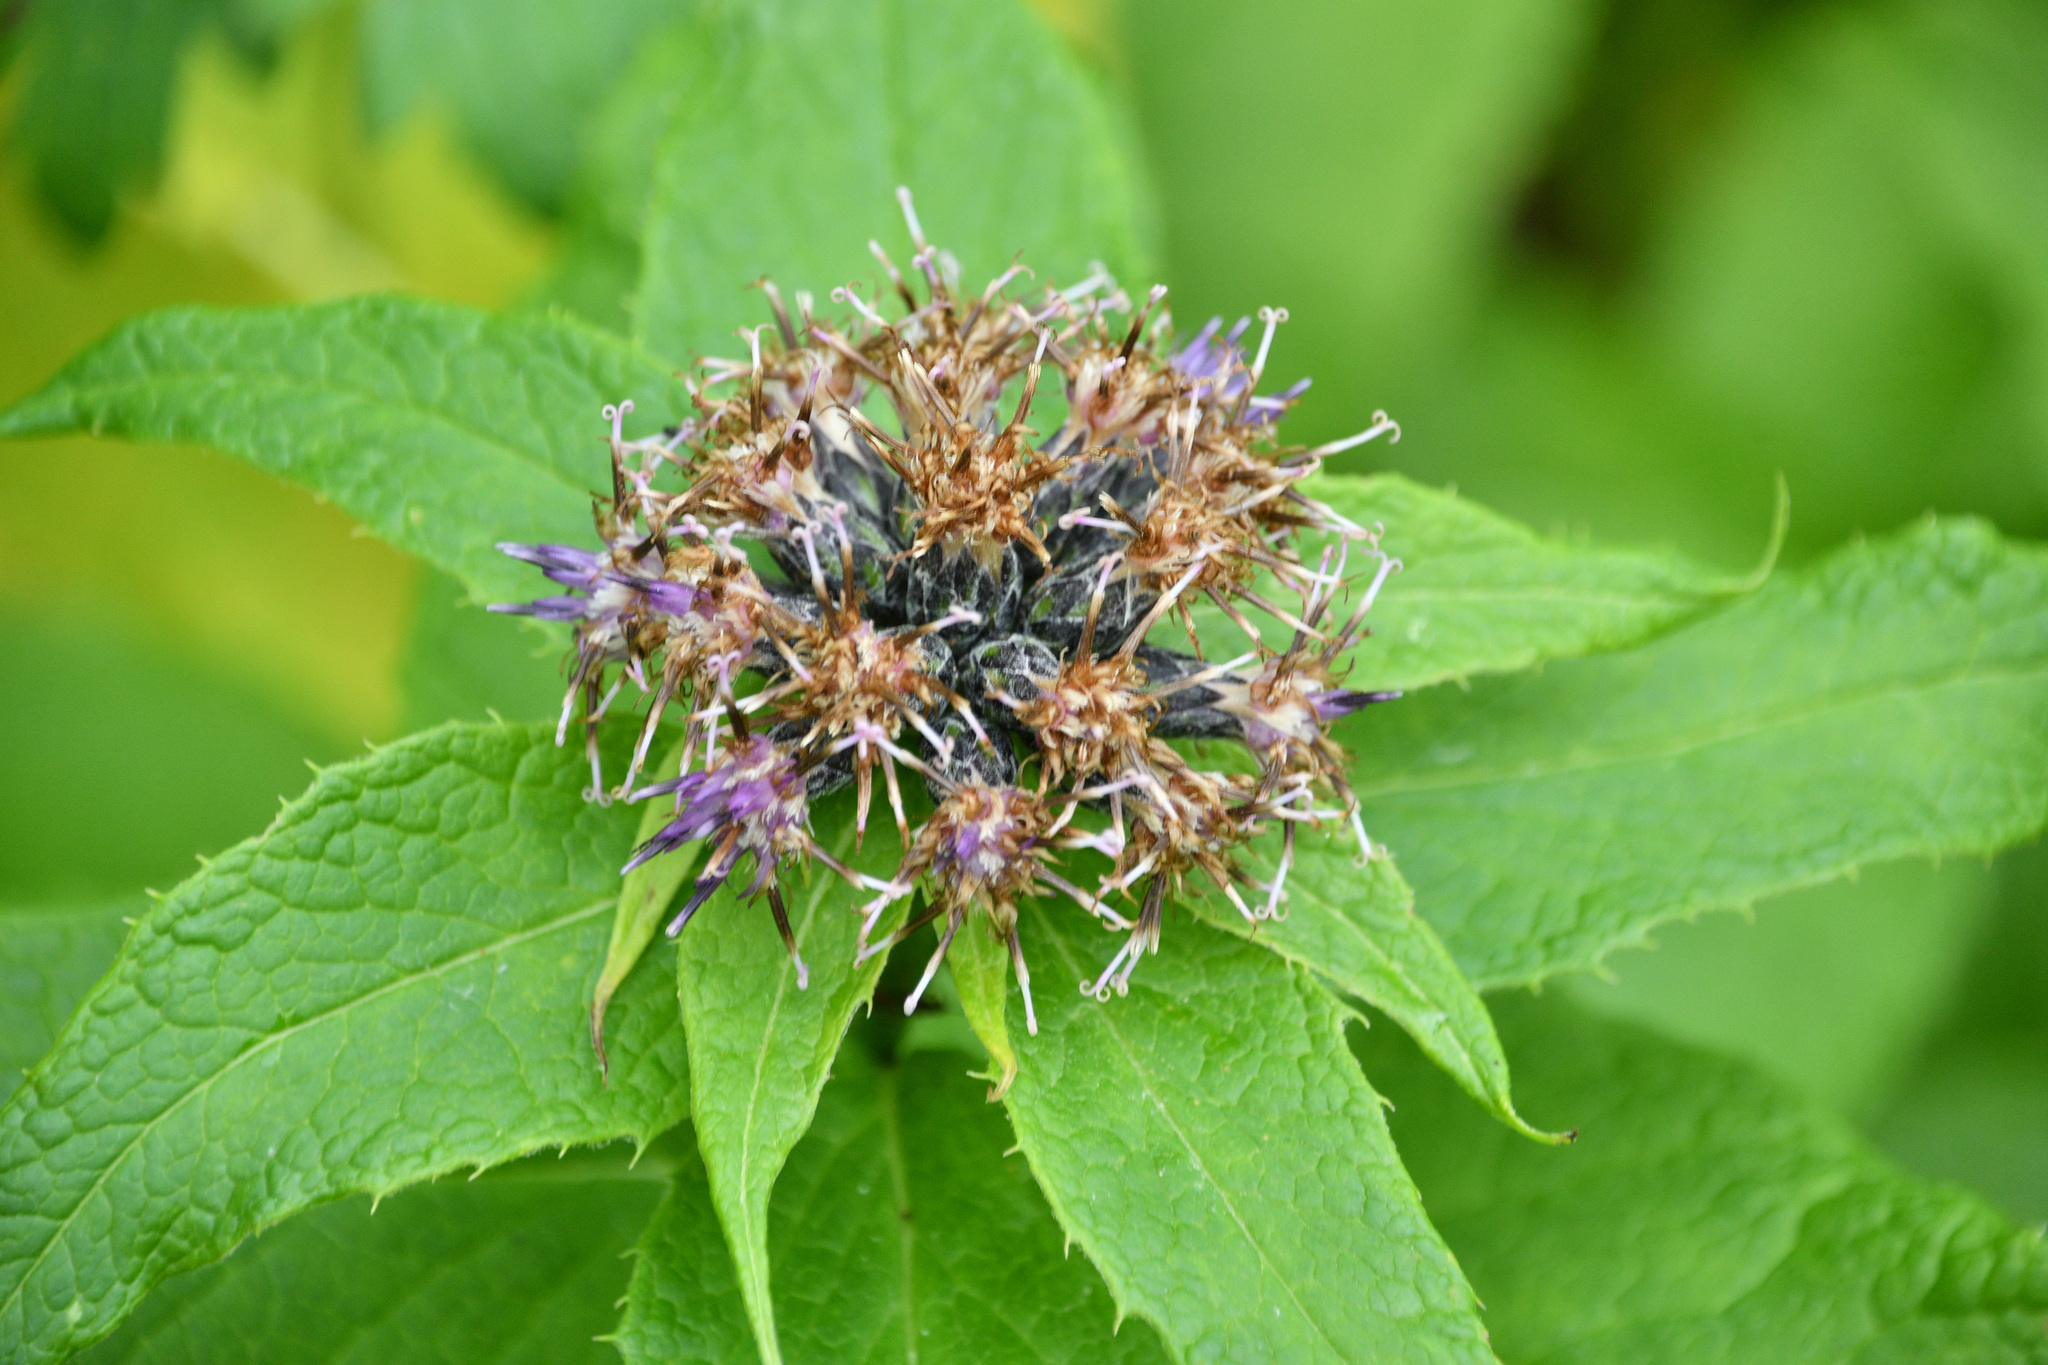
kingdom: Plantae
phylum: Tracheophyta
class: Magnoliopsida
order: Asterales
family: Asteraceae
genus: Saussurea
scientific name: Saussurea americana
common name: American saw-wort
